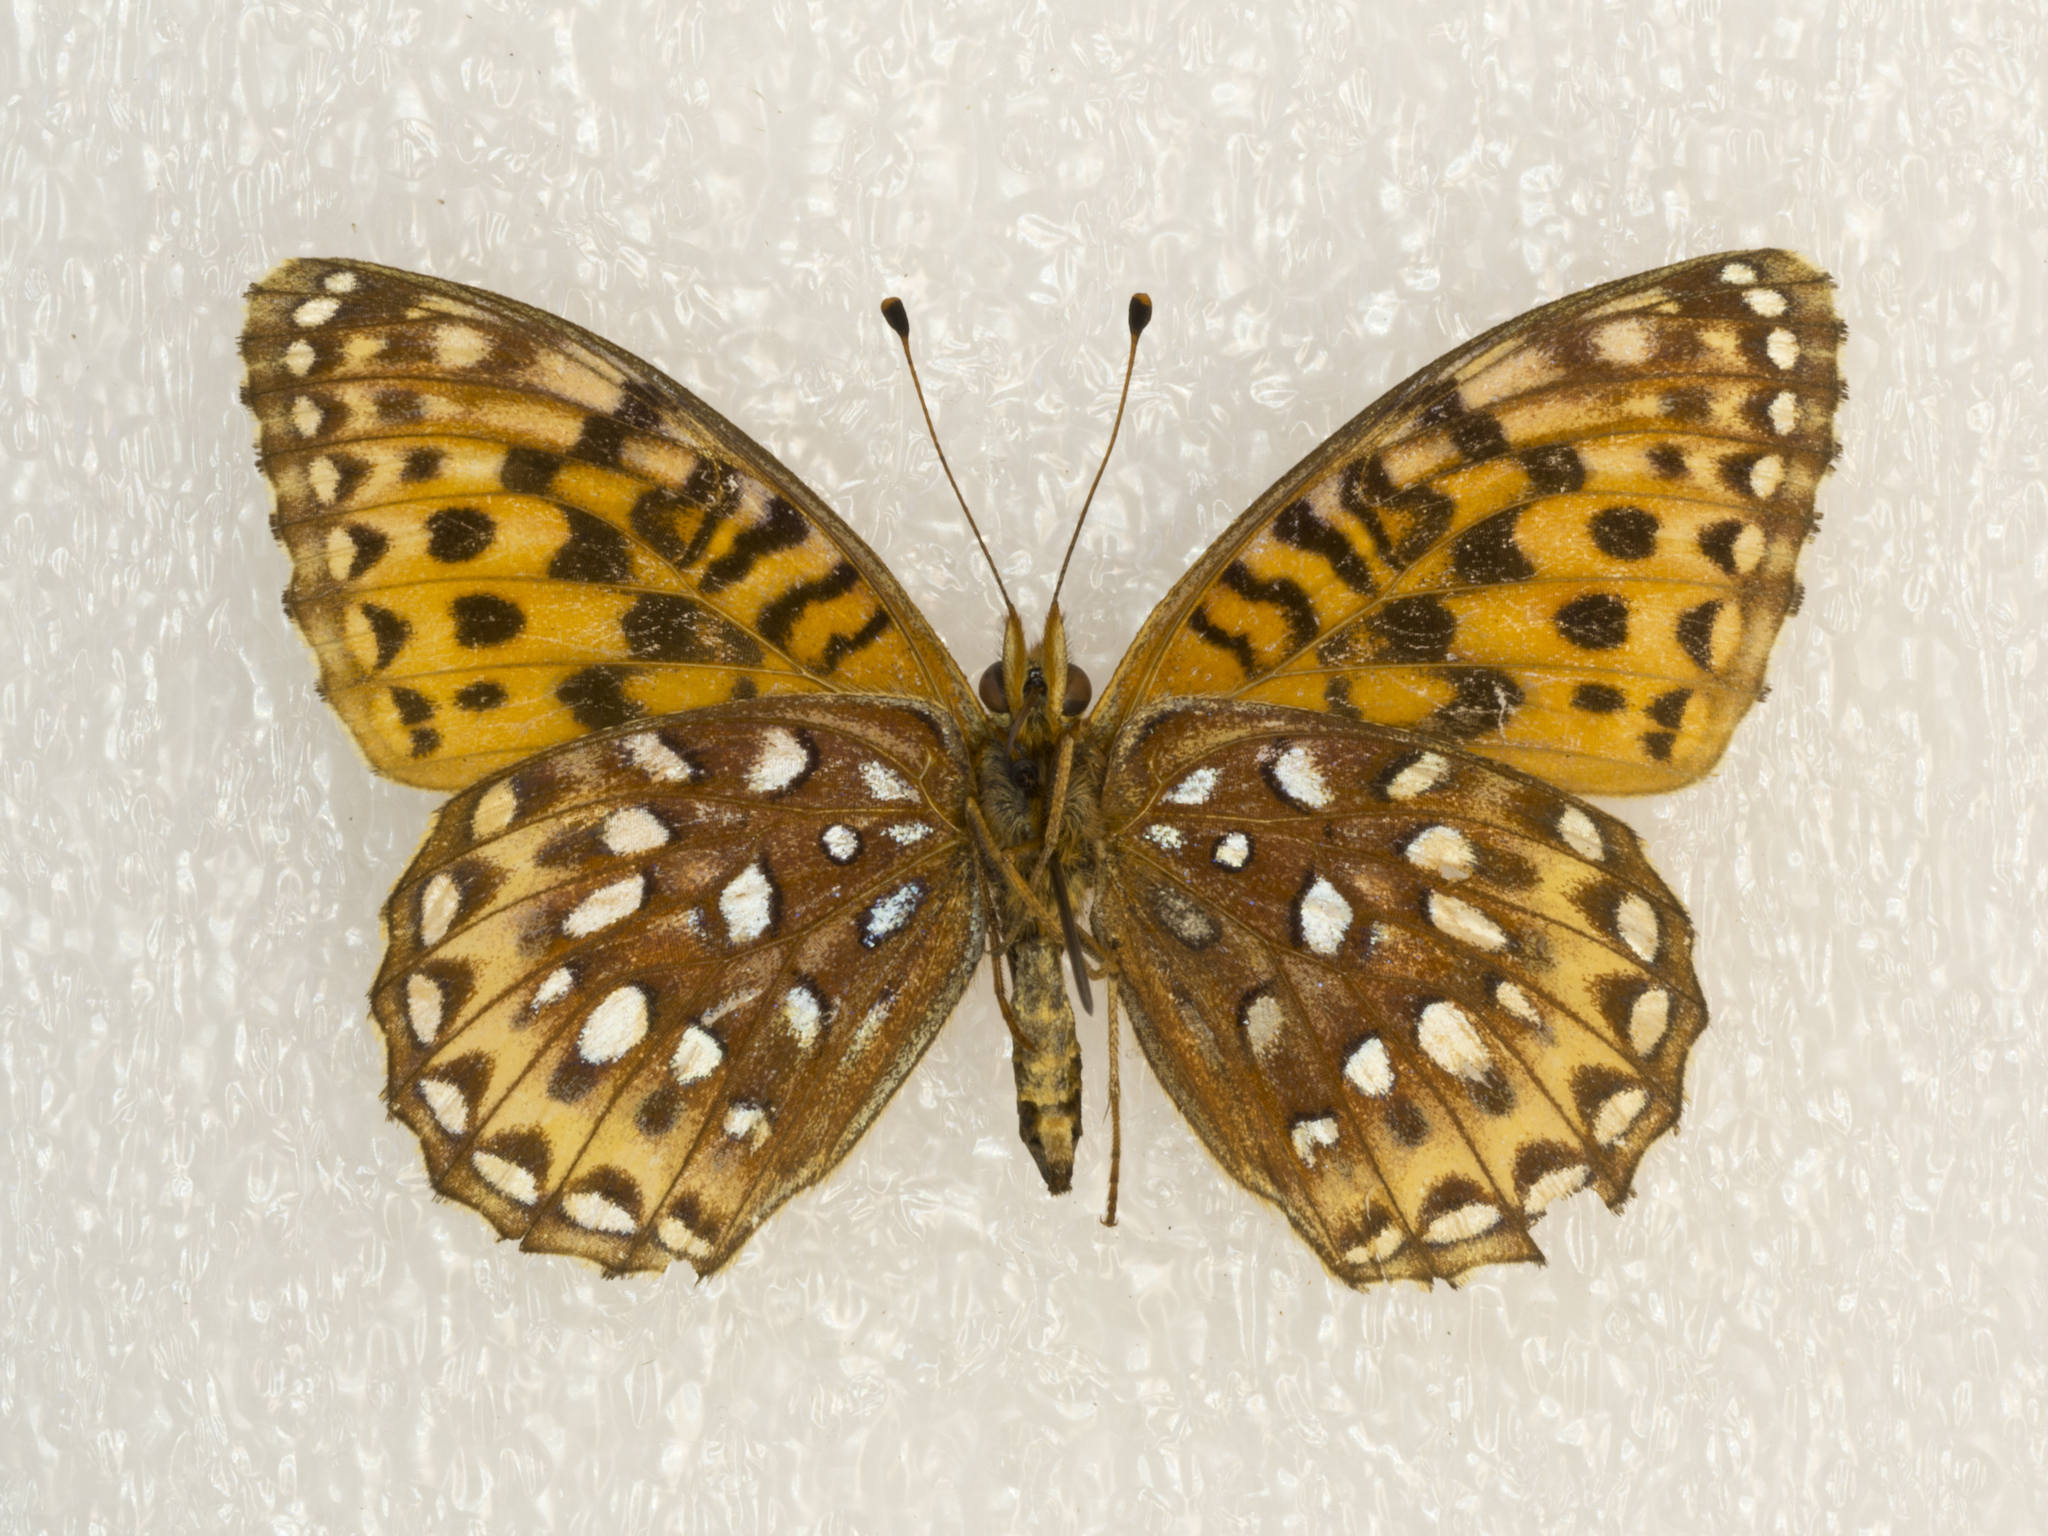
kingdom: Animalia
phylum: Arthropoda
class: Insecta
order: Lepidoptera
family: Nymphalidae
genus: Speyeria
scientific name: Speyeria atlantis
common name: Atlantis fritillary
